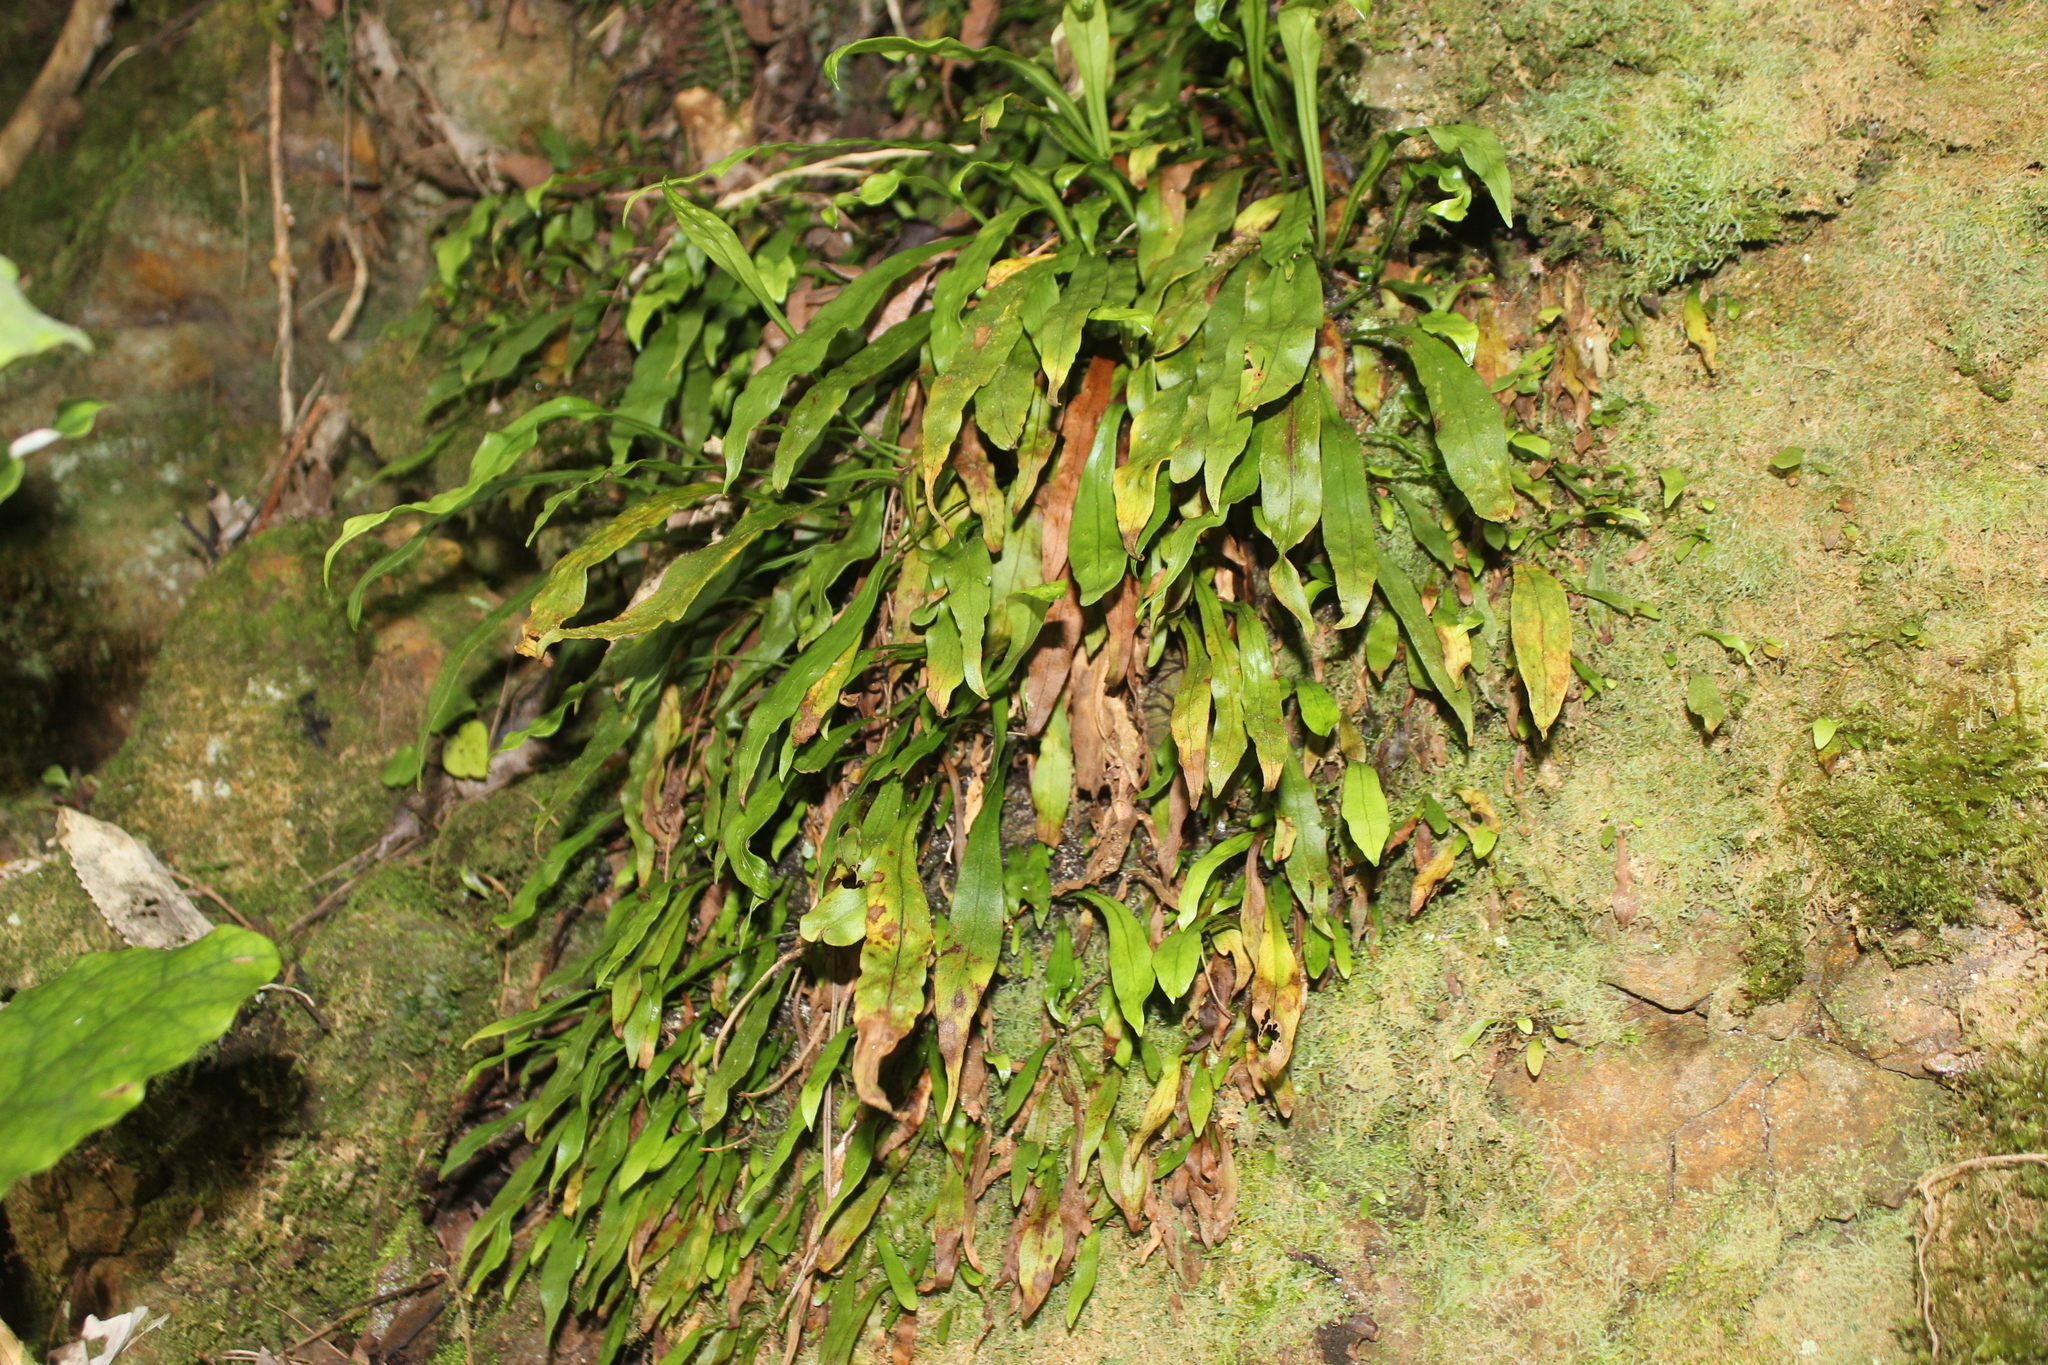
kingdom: Plantae
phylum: Tracheophyta
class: Polypodiopsida
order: Polypodiales
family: Polypodiaceae
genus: Loxogramme
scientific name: Loxogramme dictyopteris
